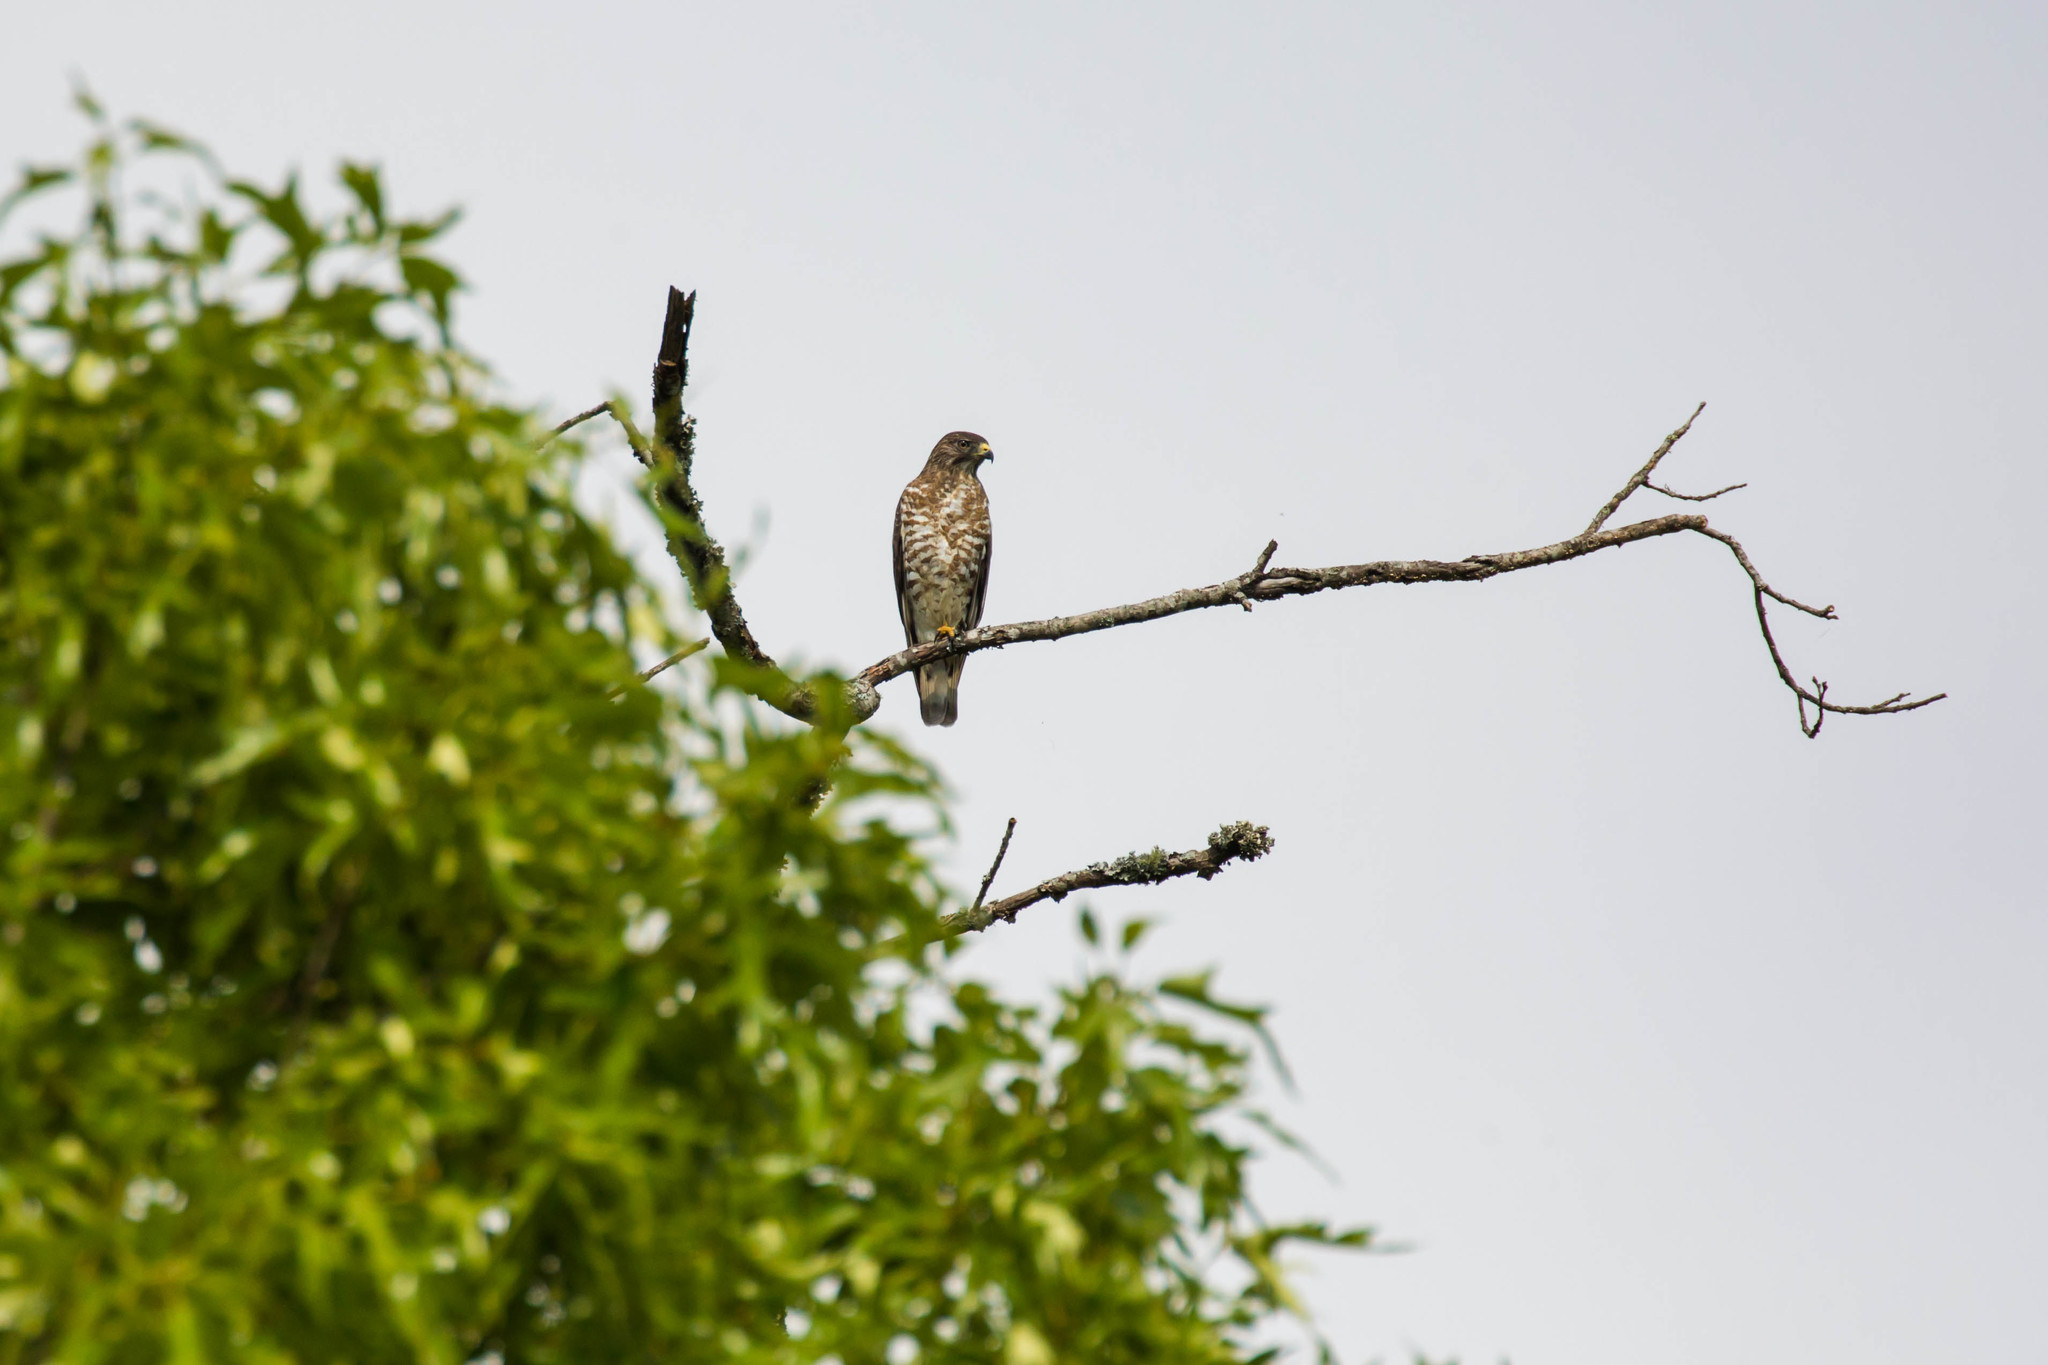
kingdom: Animalia
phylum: Chordata
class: Aves
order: Accipitriformes
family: Accipitridae
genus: Buteo
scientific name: Buteo platypterus
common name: Broad-winged hawk
